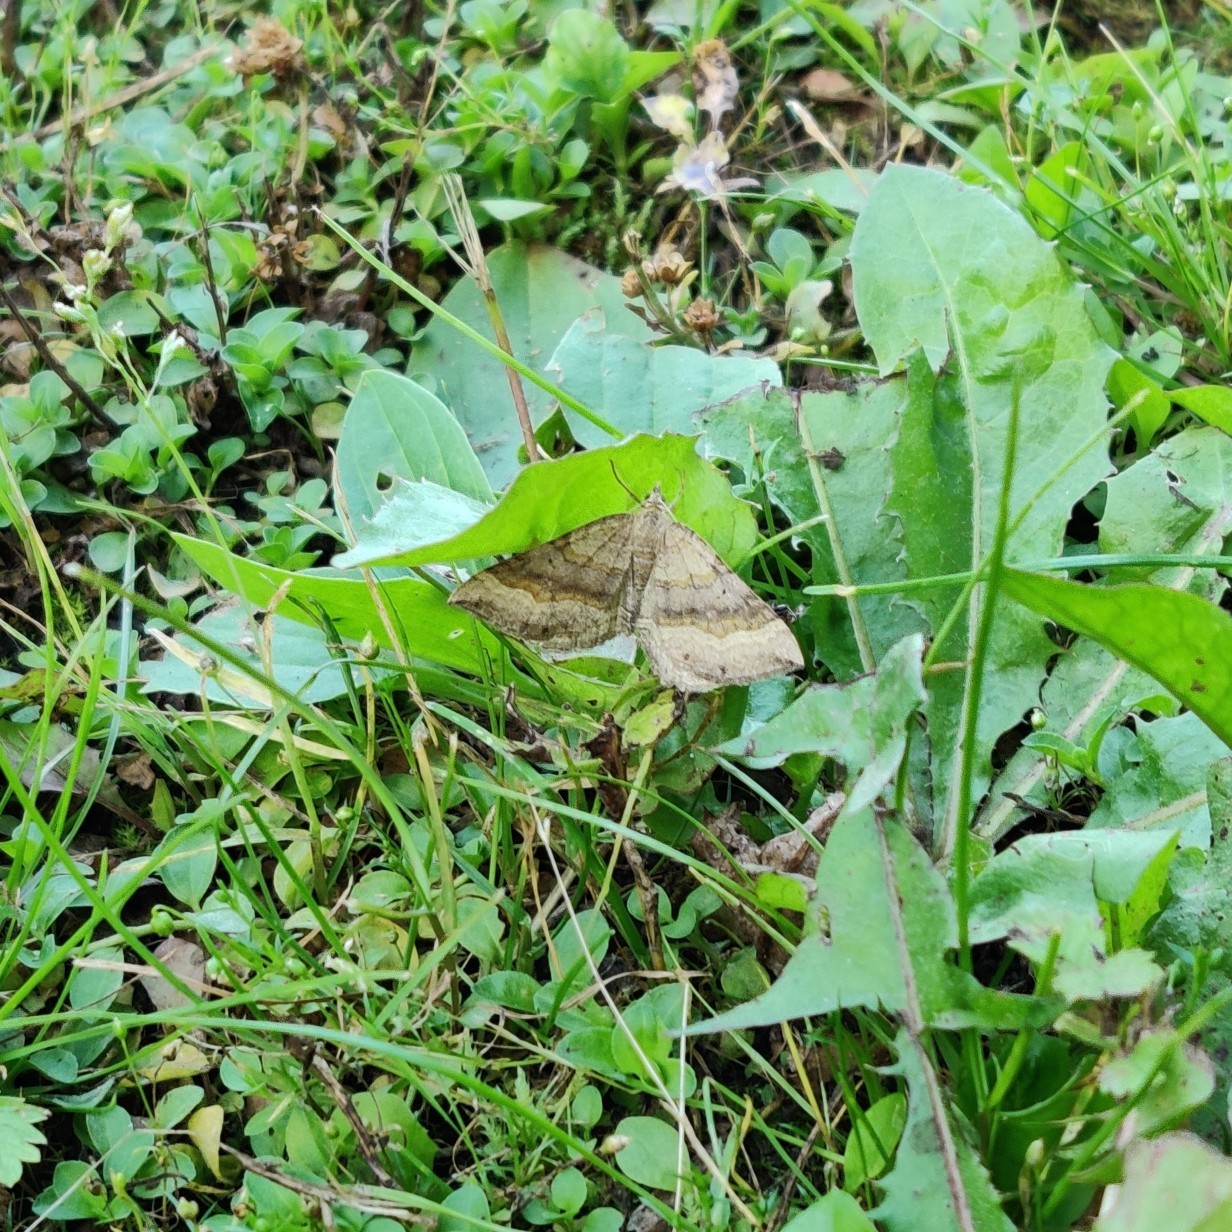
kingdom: Animalia
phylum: Arthropoda
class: Insecta
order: Lepidoptera
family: Geometridae
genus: Scotopteryx
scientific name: Scotopteryx chenopodiata
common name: Shaded broad-bar
